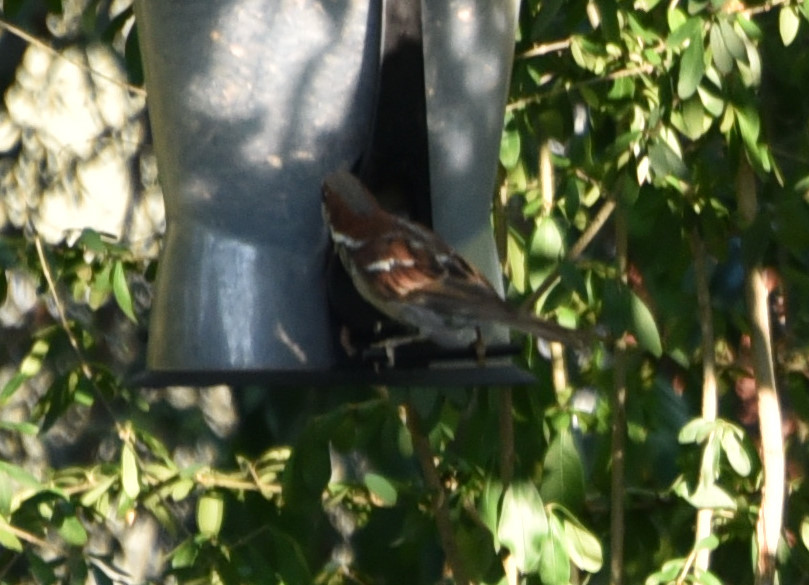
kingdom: Animalia
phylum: Chordata
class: Aves
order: Passeriformes
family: Passeridae
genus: Passer
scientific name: Passer domesticus
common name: House sparrow
